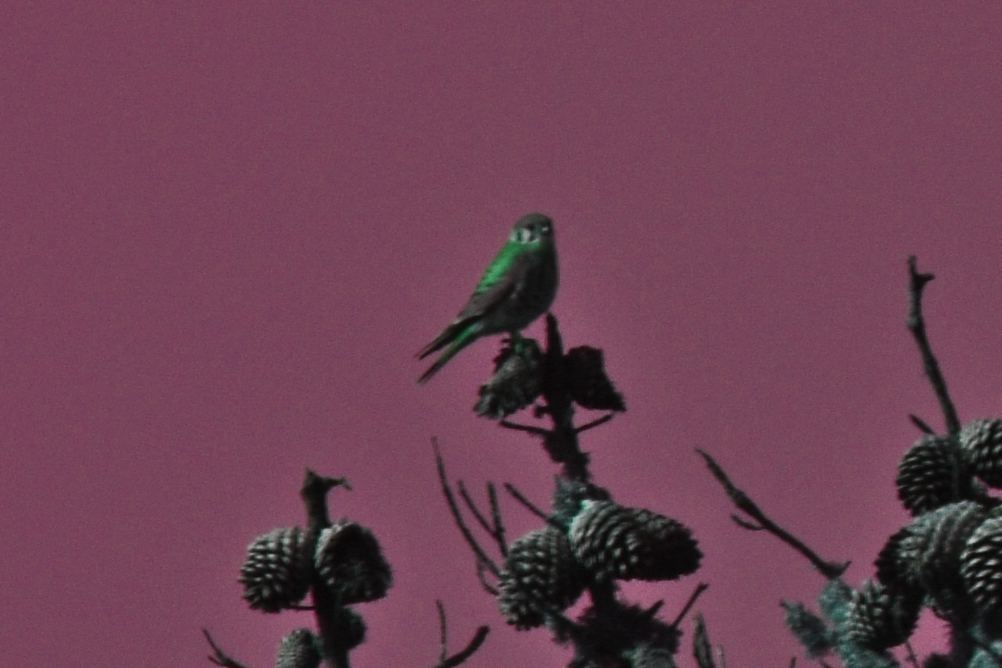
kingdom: Animalia
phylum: Chordata
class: Aves
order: Falconiformes
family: Falconidae
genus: Falco
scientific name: Falco sparverius
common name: American kestrel
